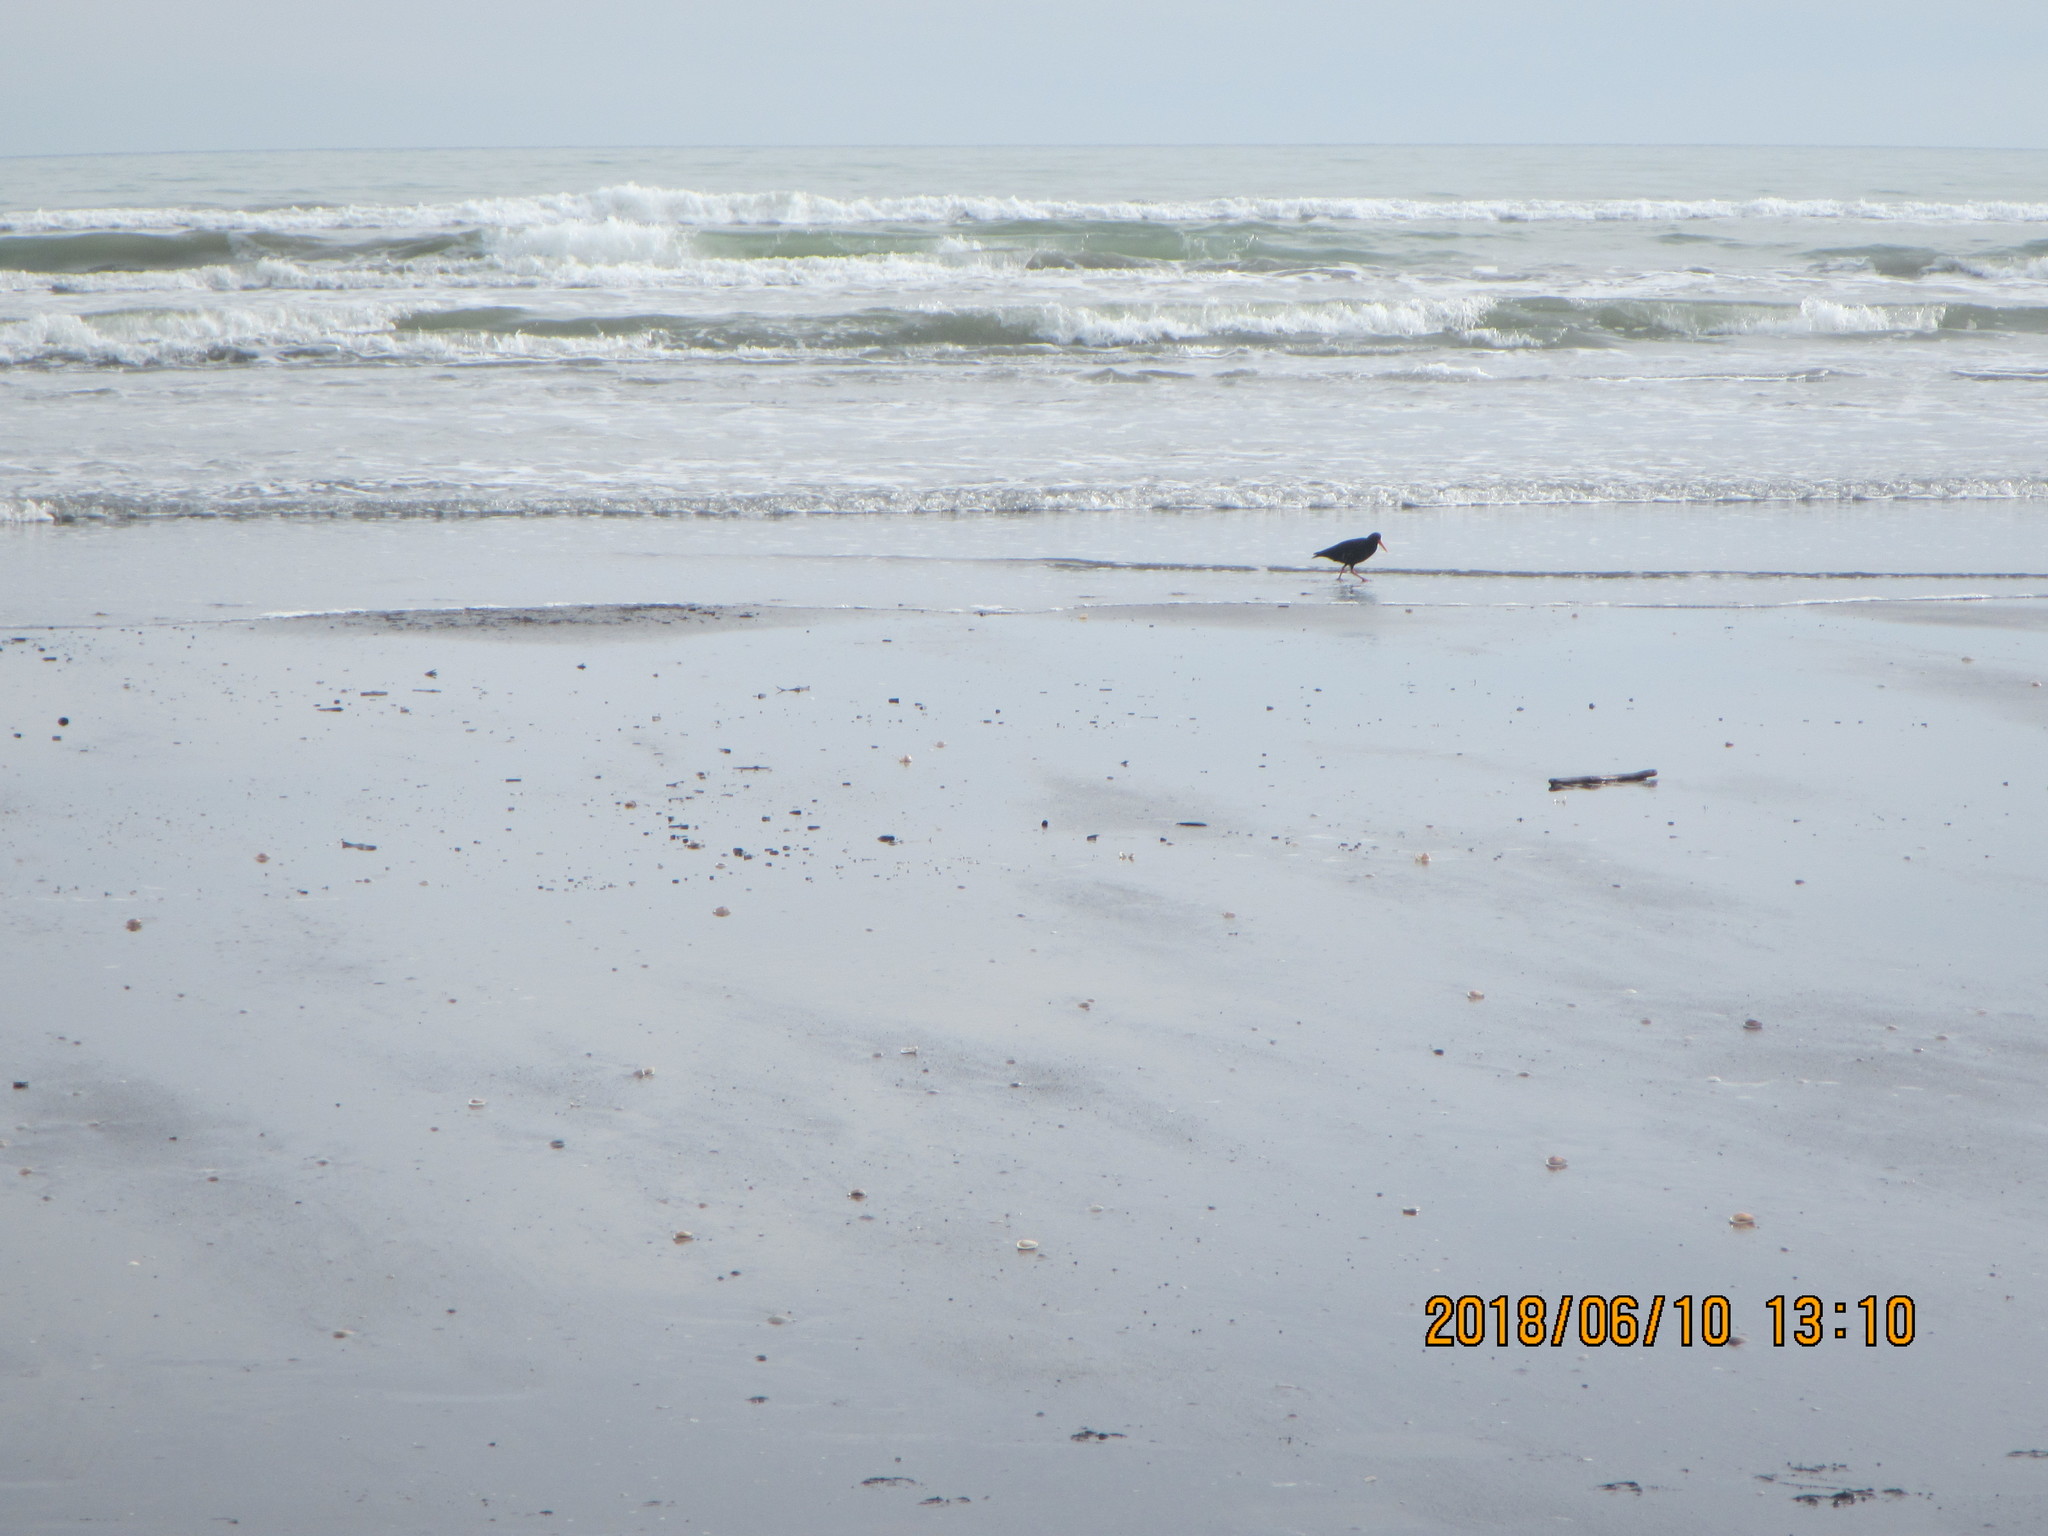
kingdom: Animalia
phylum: Chordata
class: Aves
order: Charadriiformes
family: Haematopodidae
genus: Haematopus
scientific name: Haematopus unicolor
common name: Variable oystercatcher
